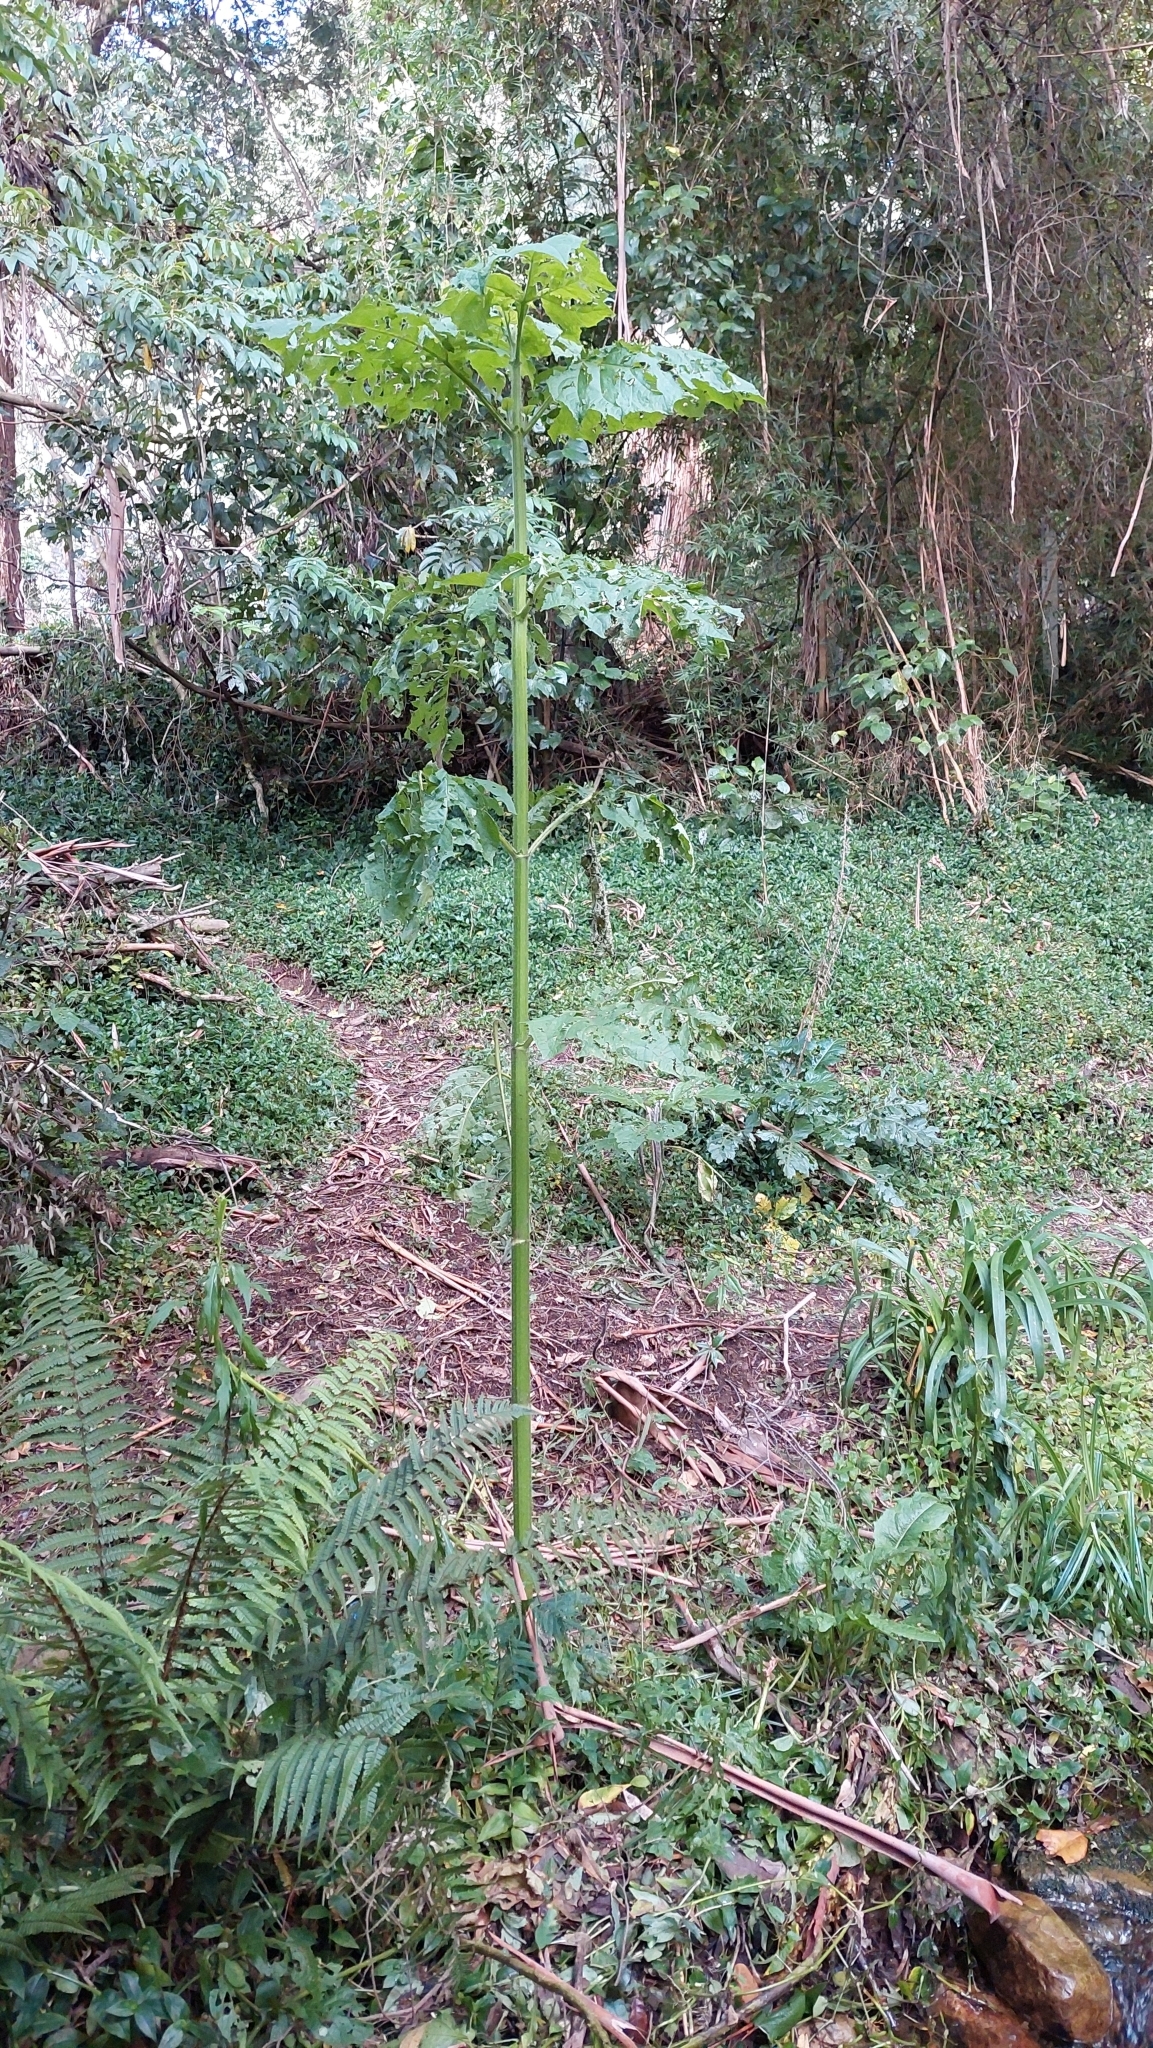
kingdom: Plantae
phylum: Tracheophyta
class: Magnoliopsida
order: Asterales
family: Asteraceae
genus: Smallanthus
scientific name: Smallanthus pyramidalis
